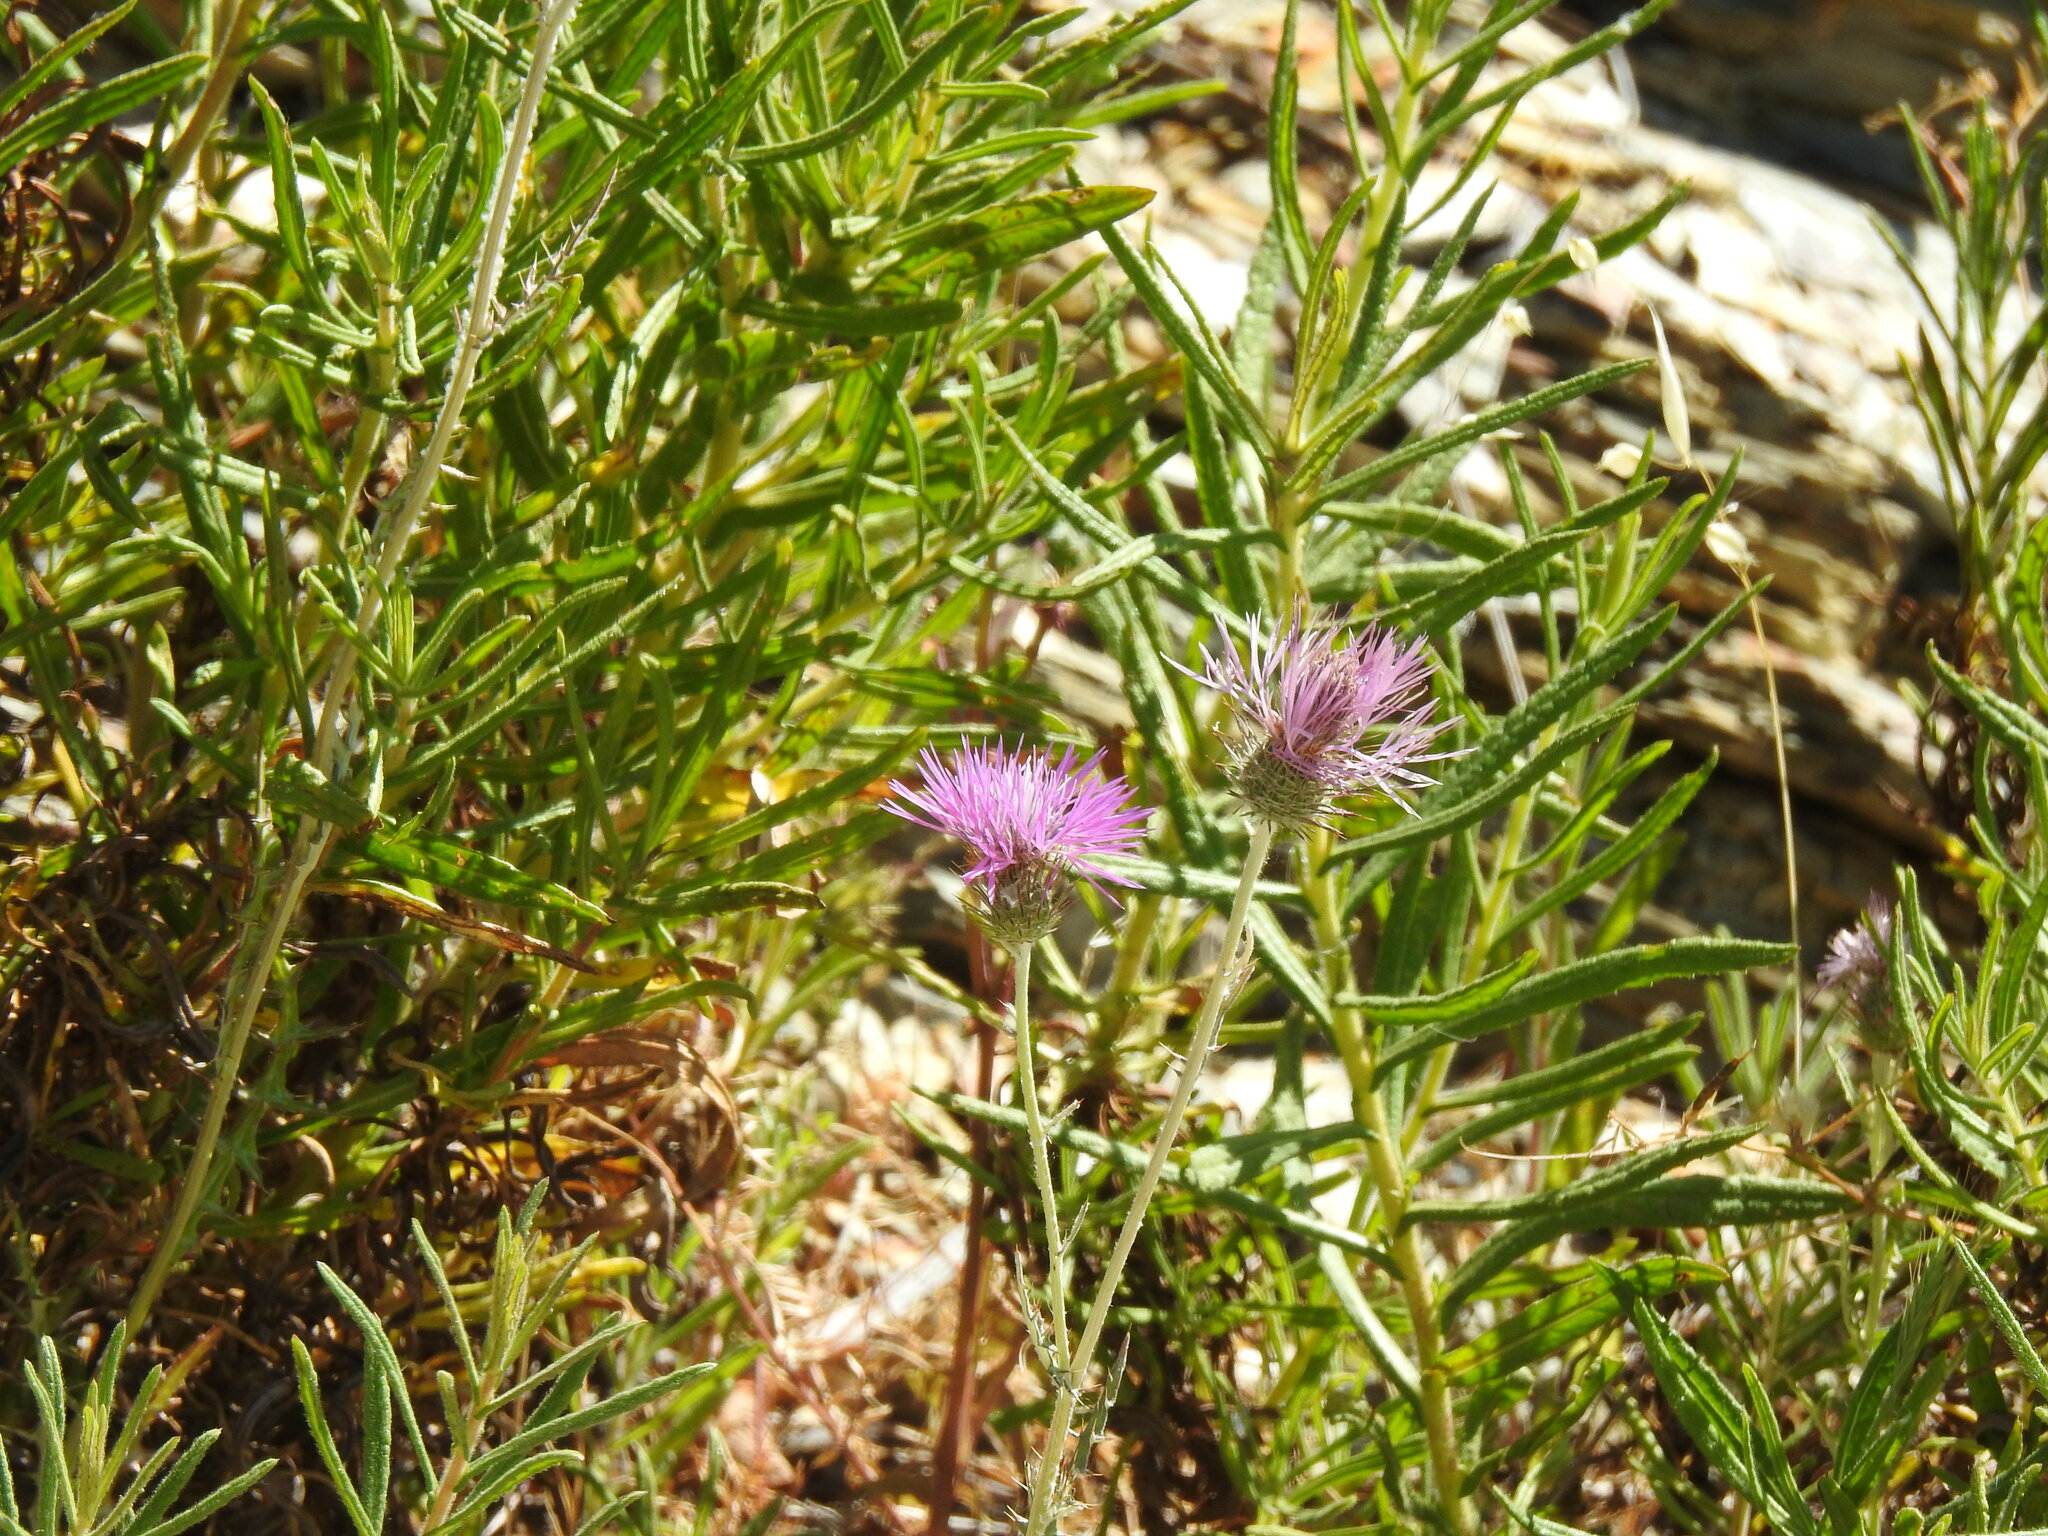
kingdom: Plantae
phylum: Tracheophyta
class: Magnoliopsida
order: Asterales
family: Asteraceae
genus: Galactites
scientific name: Galactites tomentosa
